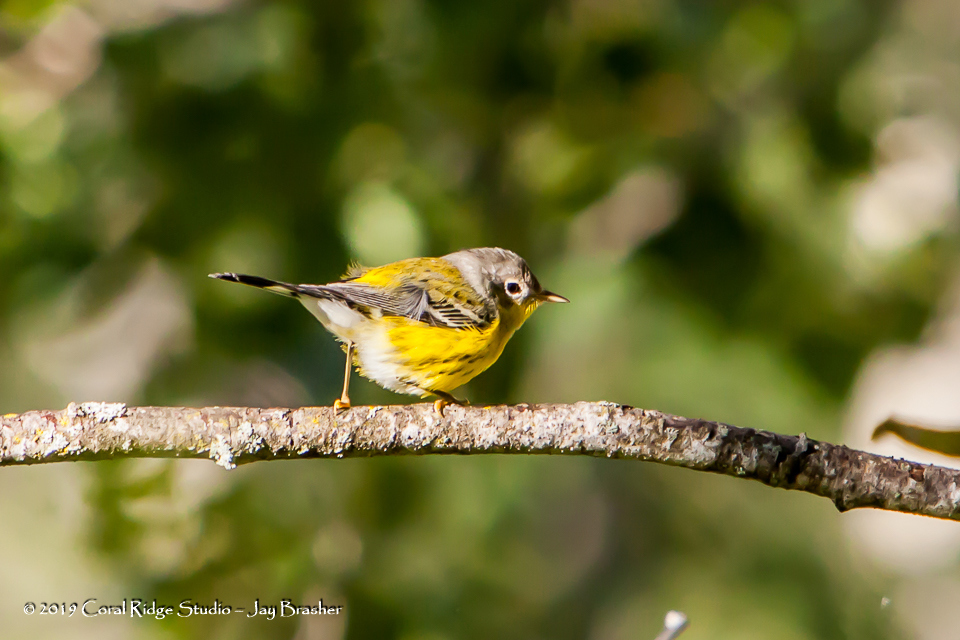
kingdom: Animalia
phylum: Chordata
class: Aves
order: Passeriformes
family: Parulidae
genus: Setophaga
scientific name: Setophaga magnolia
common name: Magnolia warbler
